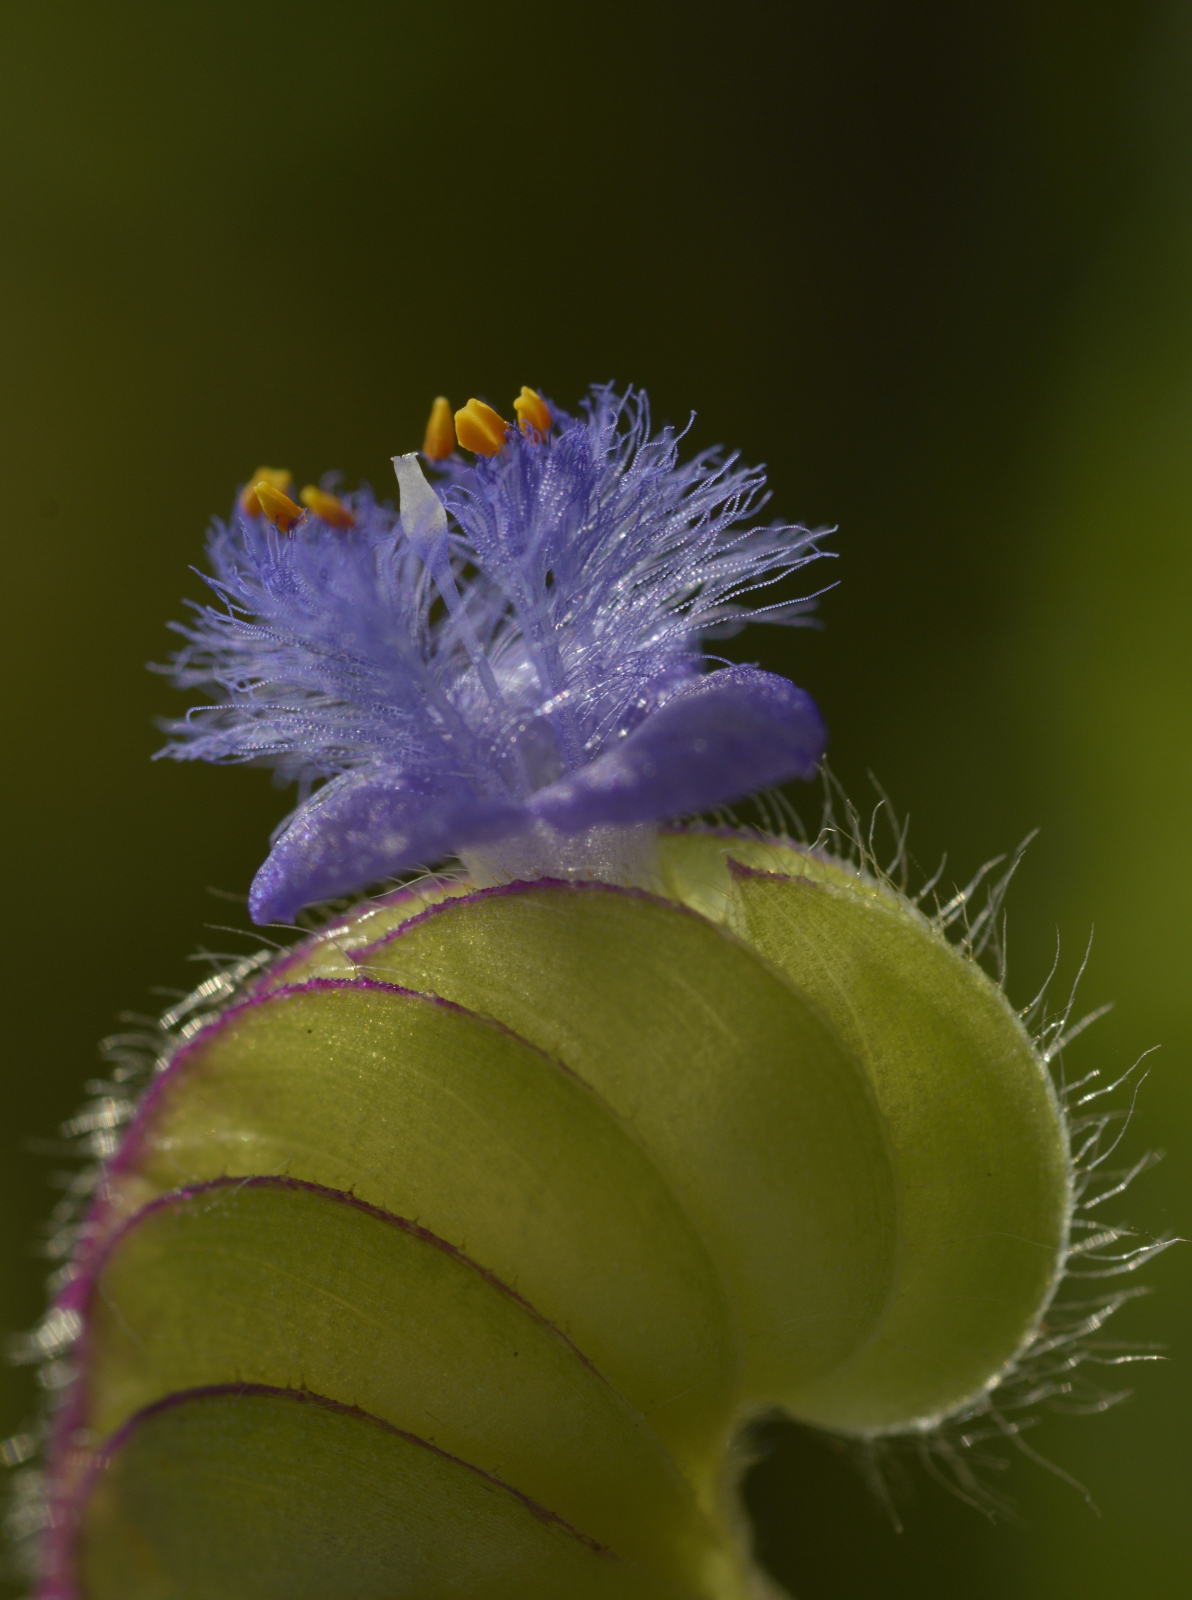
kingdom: Plantae
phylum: Tracheophyta
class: Liliopsida
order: Commelinales
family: Commelinaceae
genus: Cyanotis
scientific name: Cyanotis cristata
